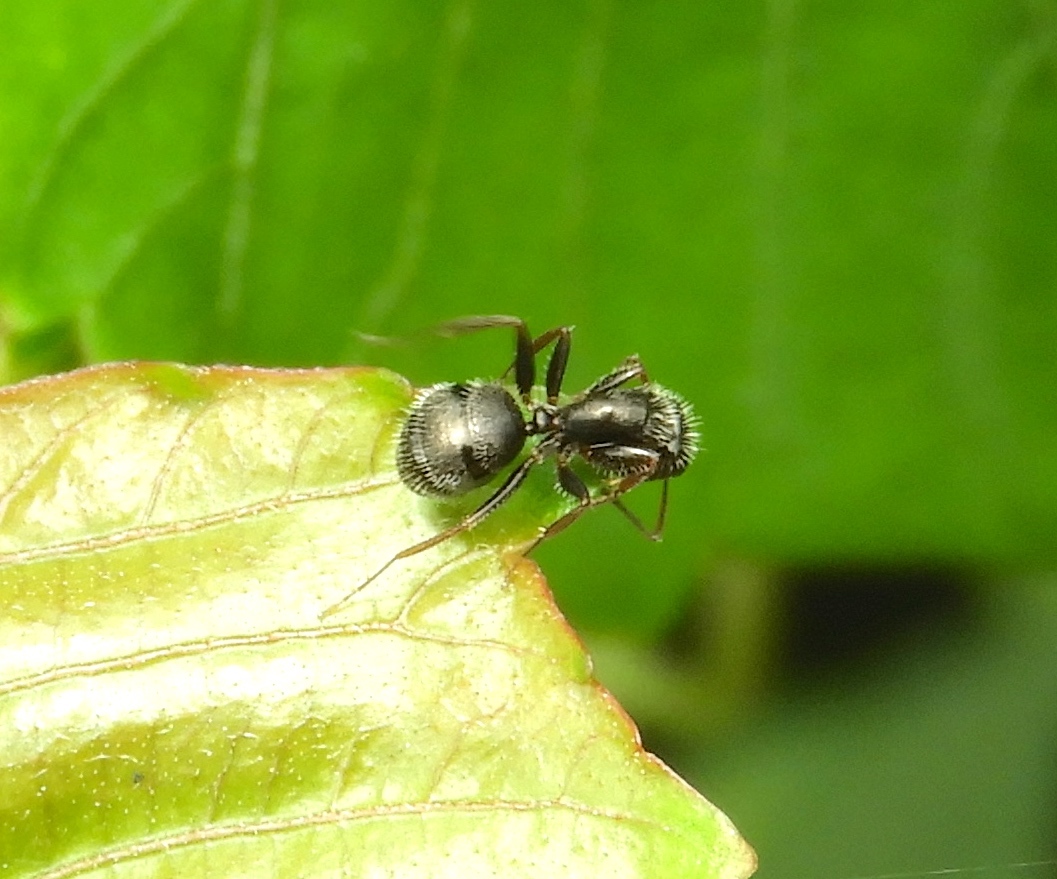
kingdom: Animalia
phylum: Arthropoda
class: Insecta
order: Hymenoptera
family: Formicidae
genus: Camponotus
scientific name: Camponotus
